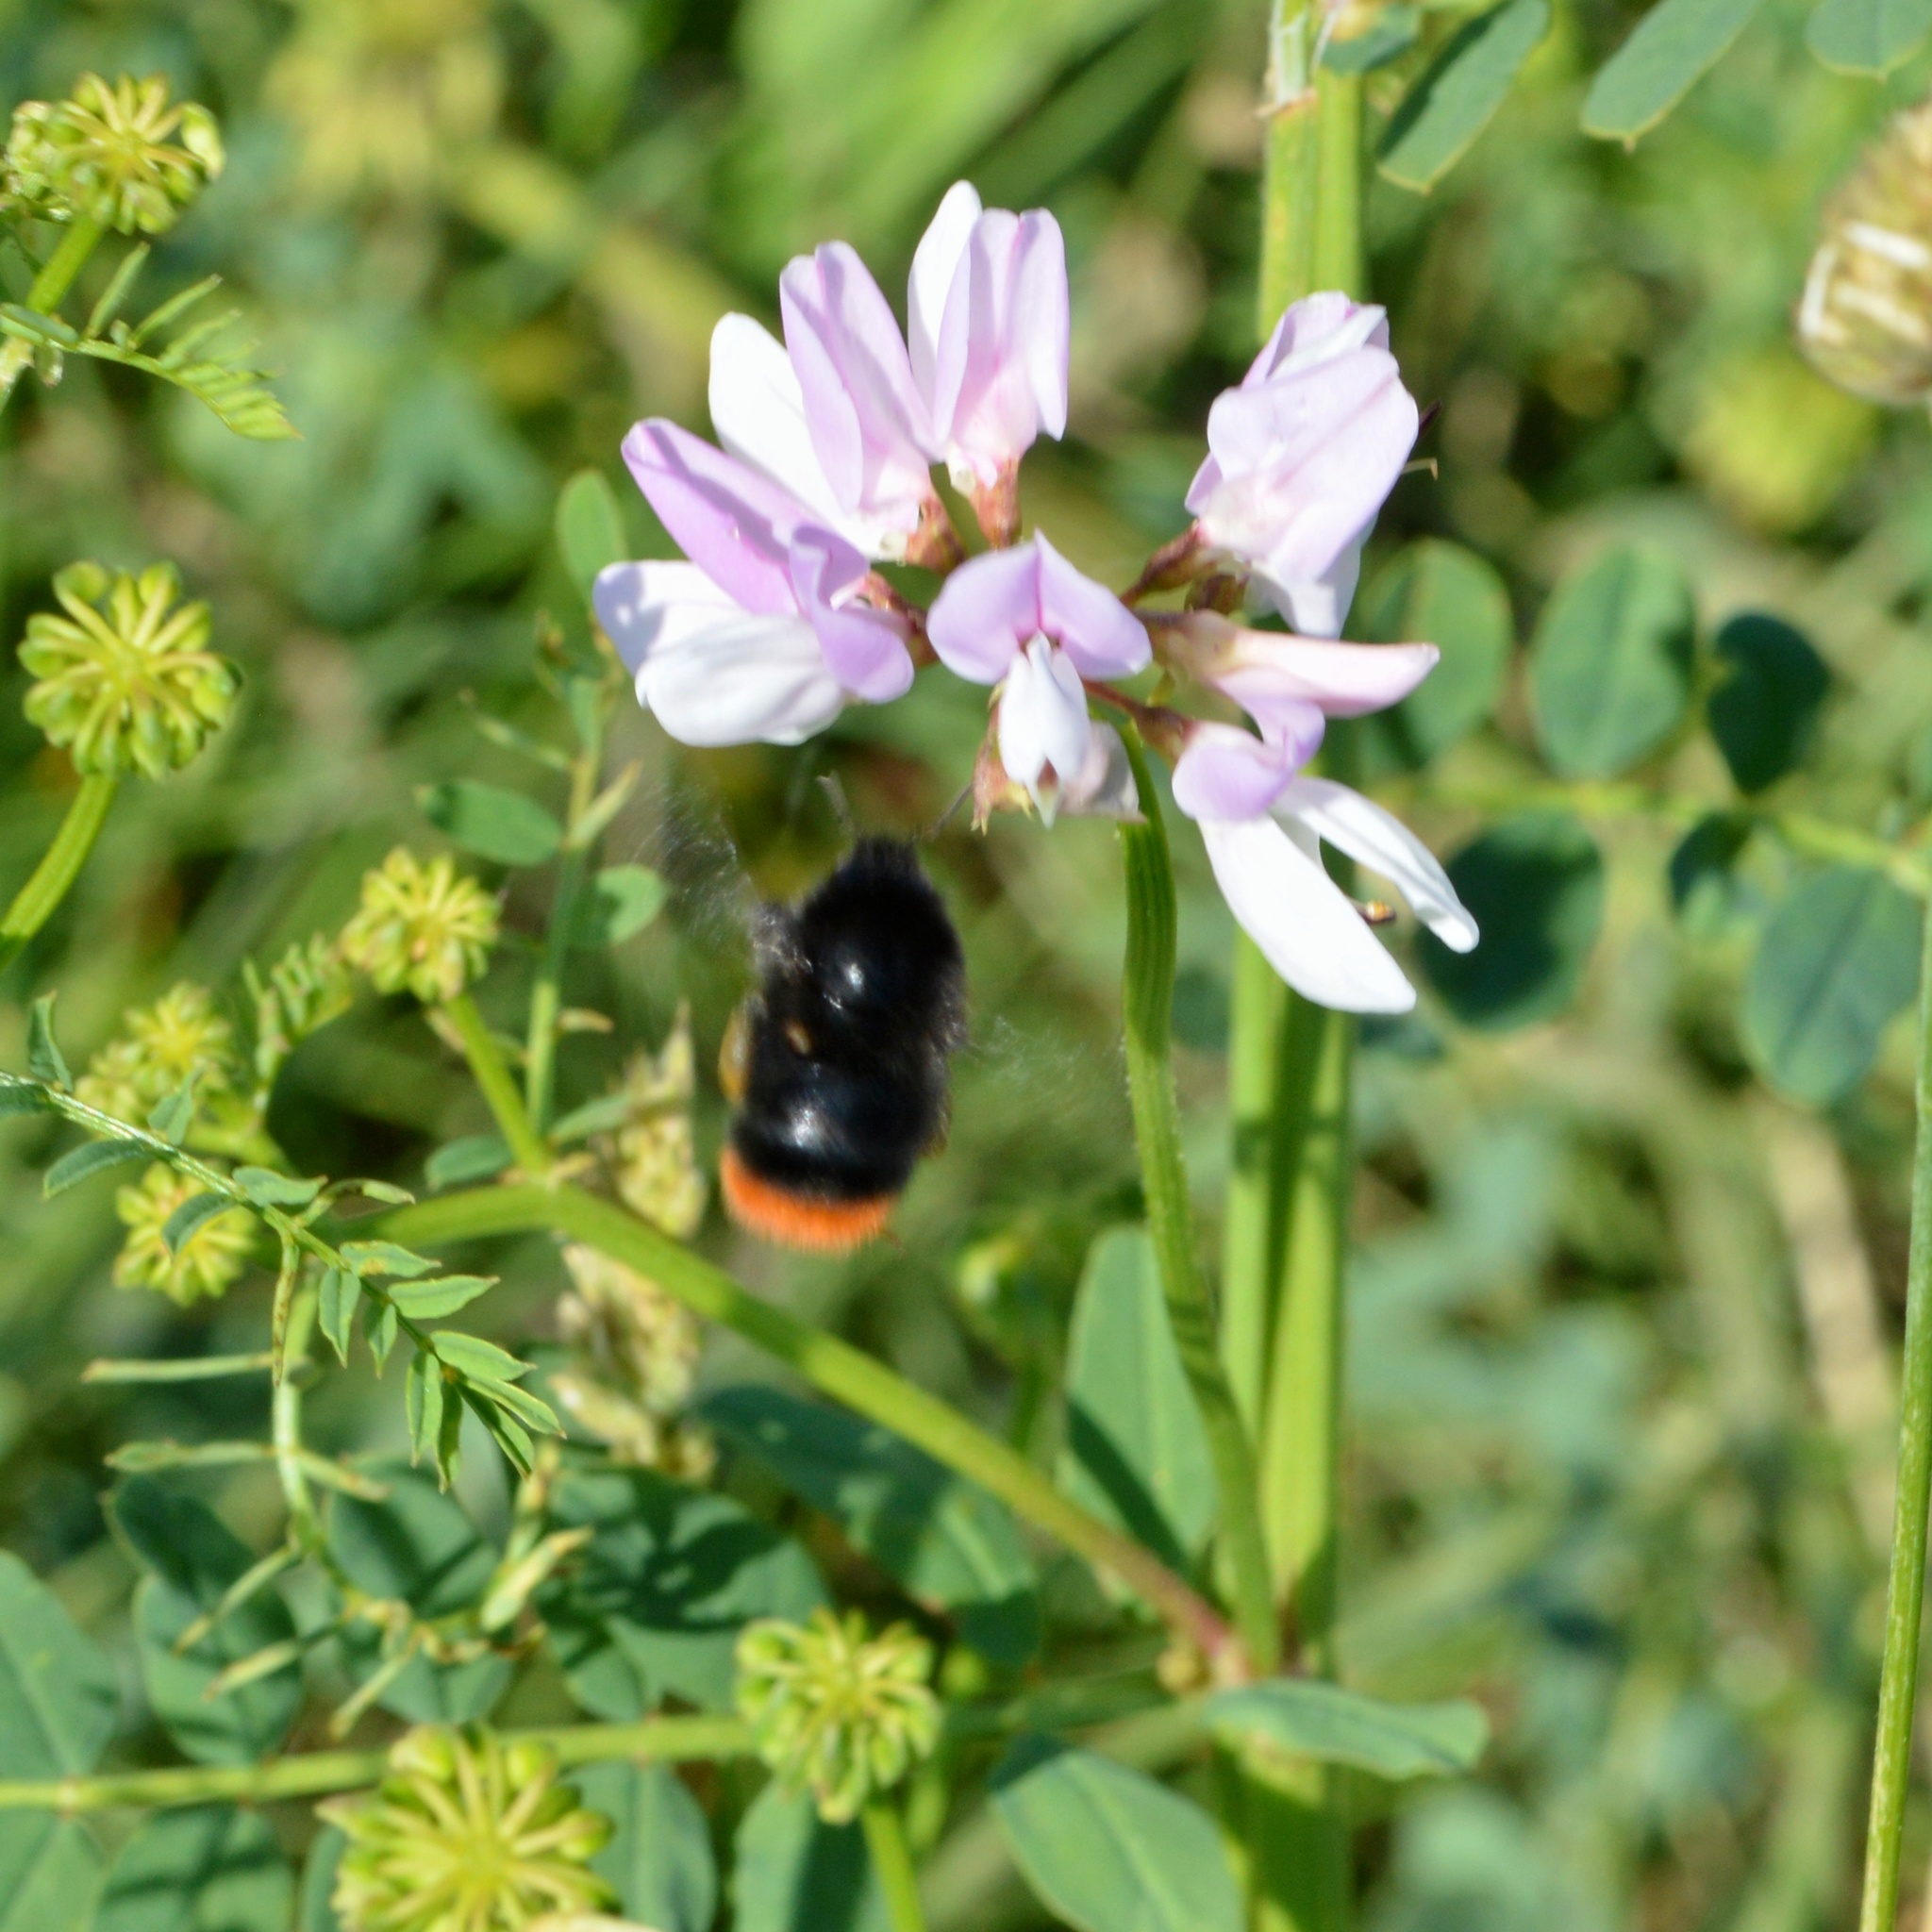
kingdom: Plantae
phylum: Tracheophyta
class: Magnoliopsida
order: Fabales
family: Fabaceae
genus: Coronilla
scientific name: Coronilla varia
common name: Crownvetch
